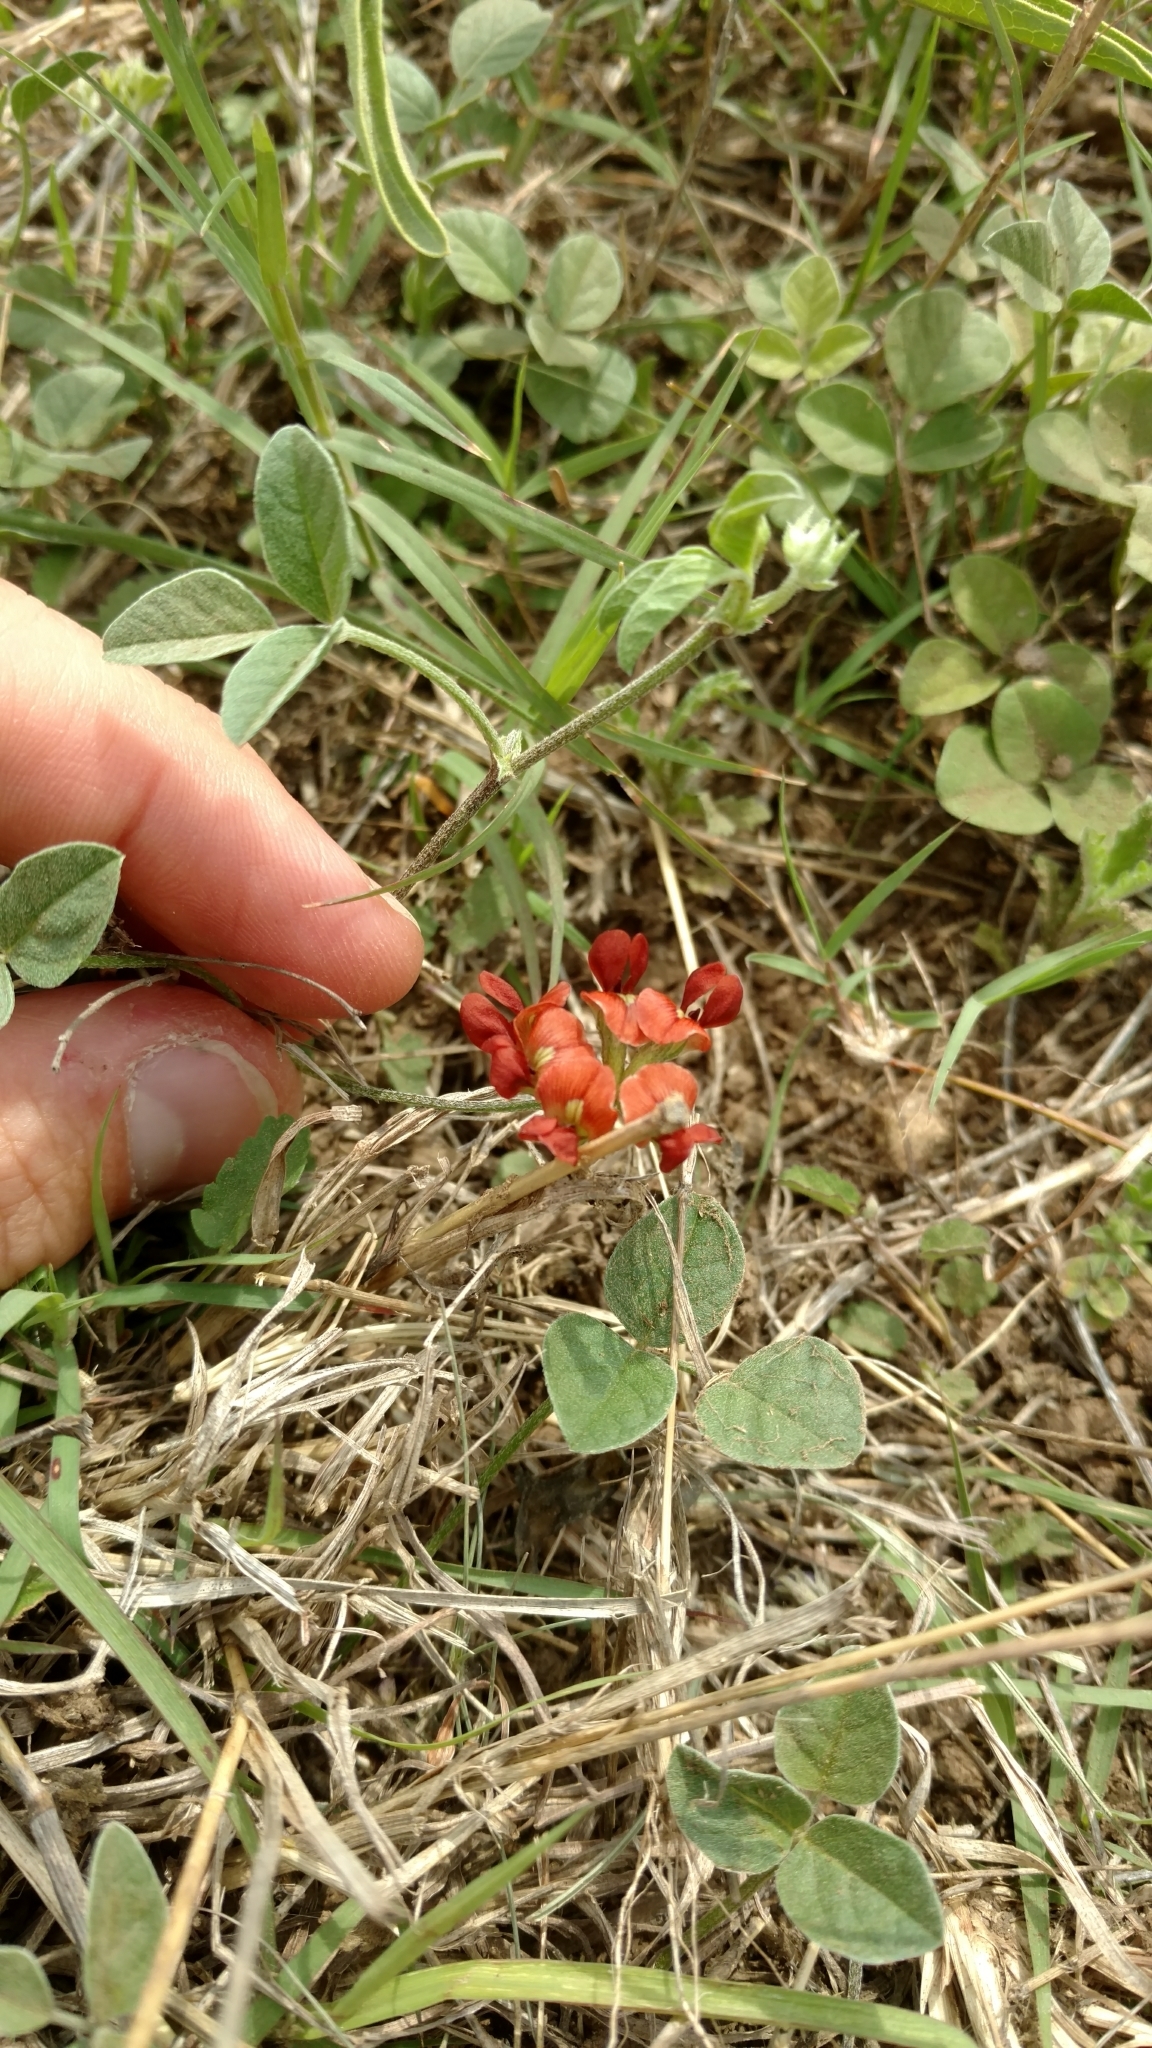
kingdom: Plantae
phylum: Tracheophyta
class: Magnoliopsida
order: Fabales
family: Fabaceae
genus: Pediomelum
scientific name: Pediomelum rhombifolium
